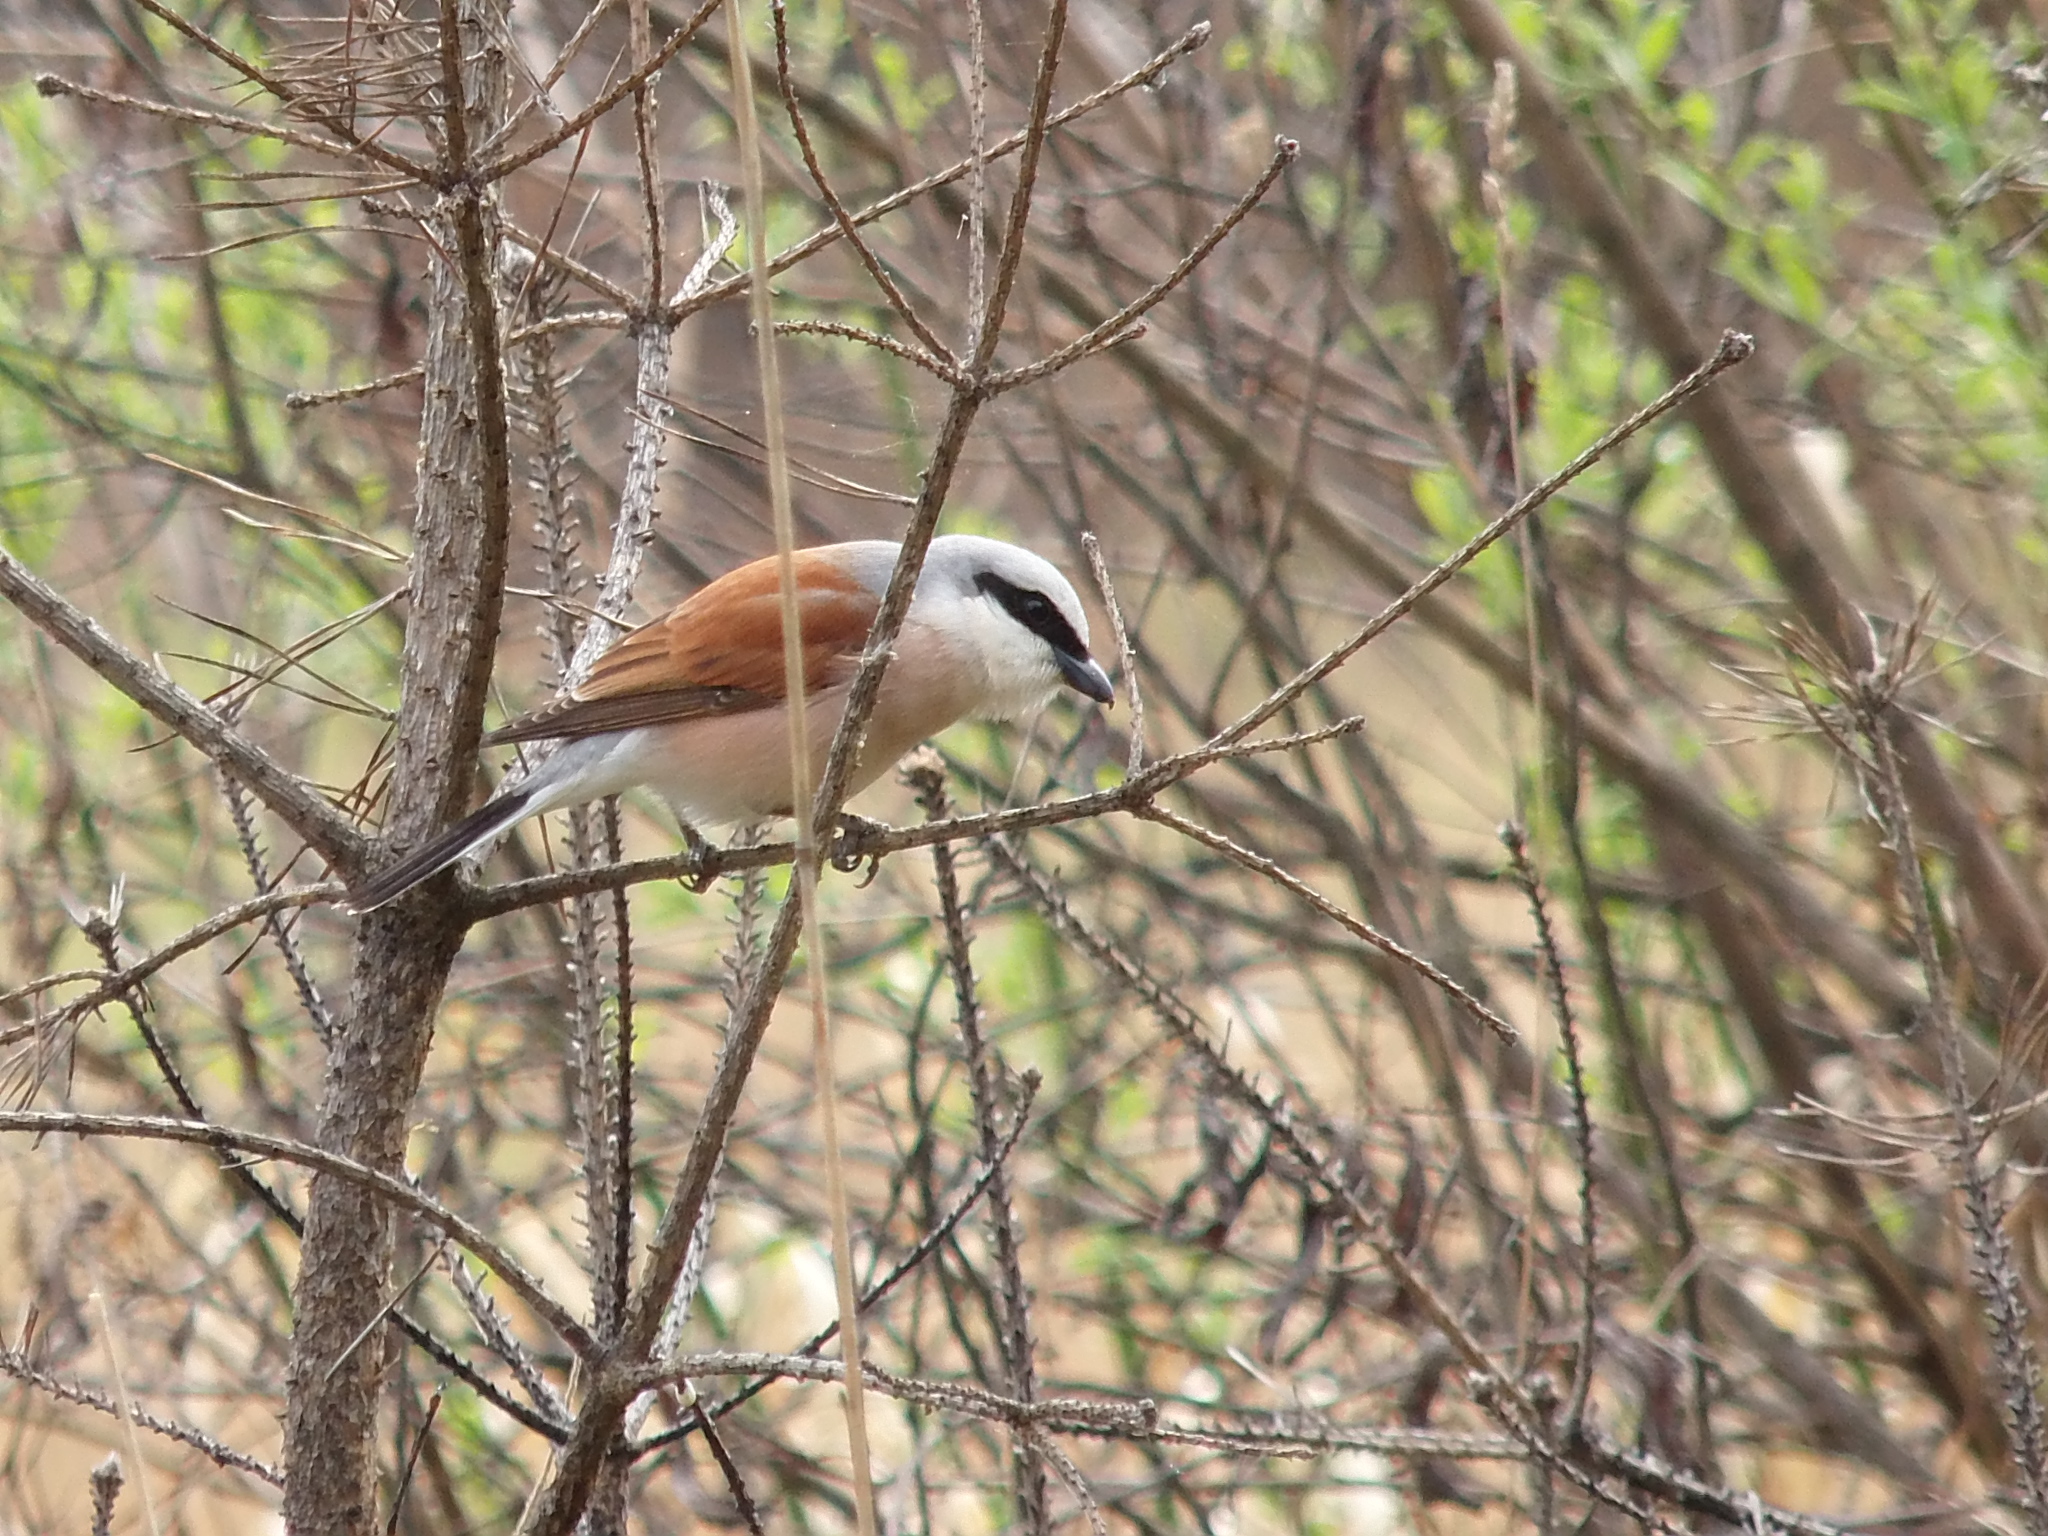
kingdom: Animalia
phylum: Chordata
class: Aves
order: Passeriformes
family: Laniidae
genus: Lanius
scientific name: Lanius collurio
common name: Red-backed shrike
